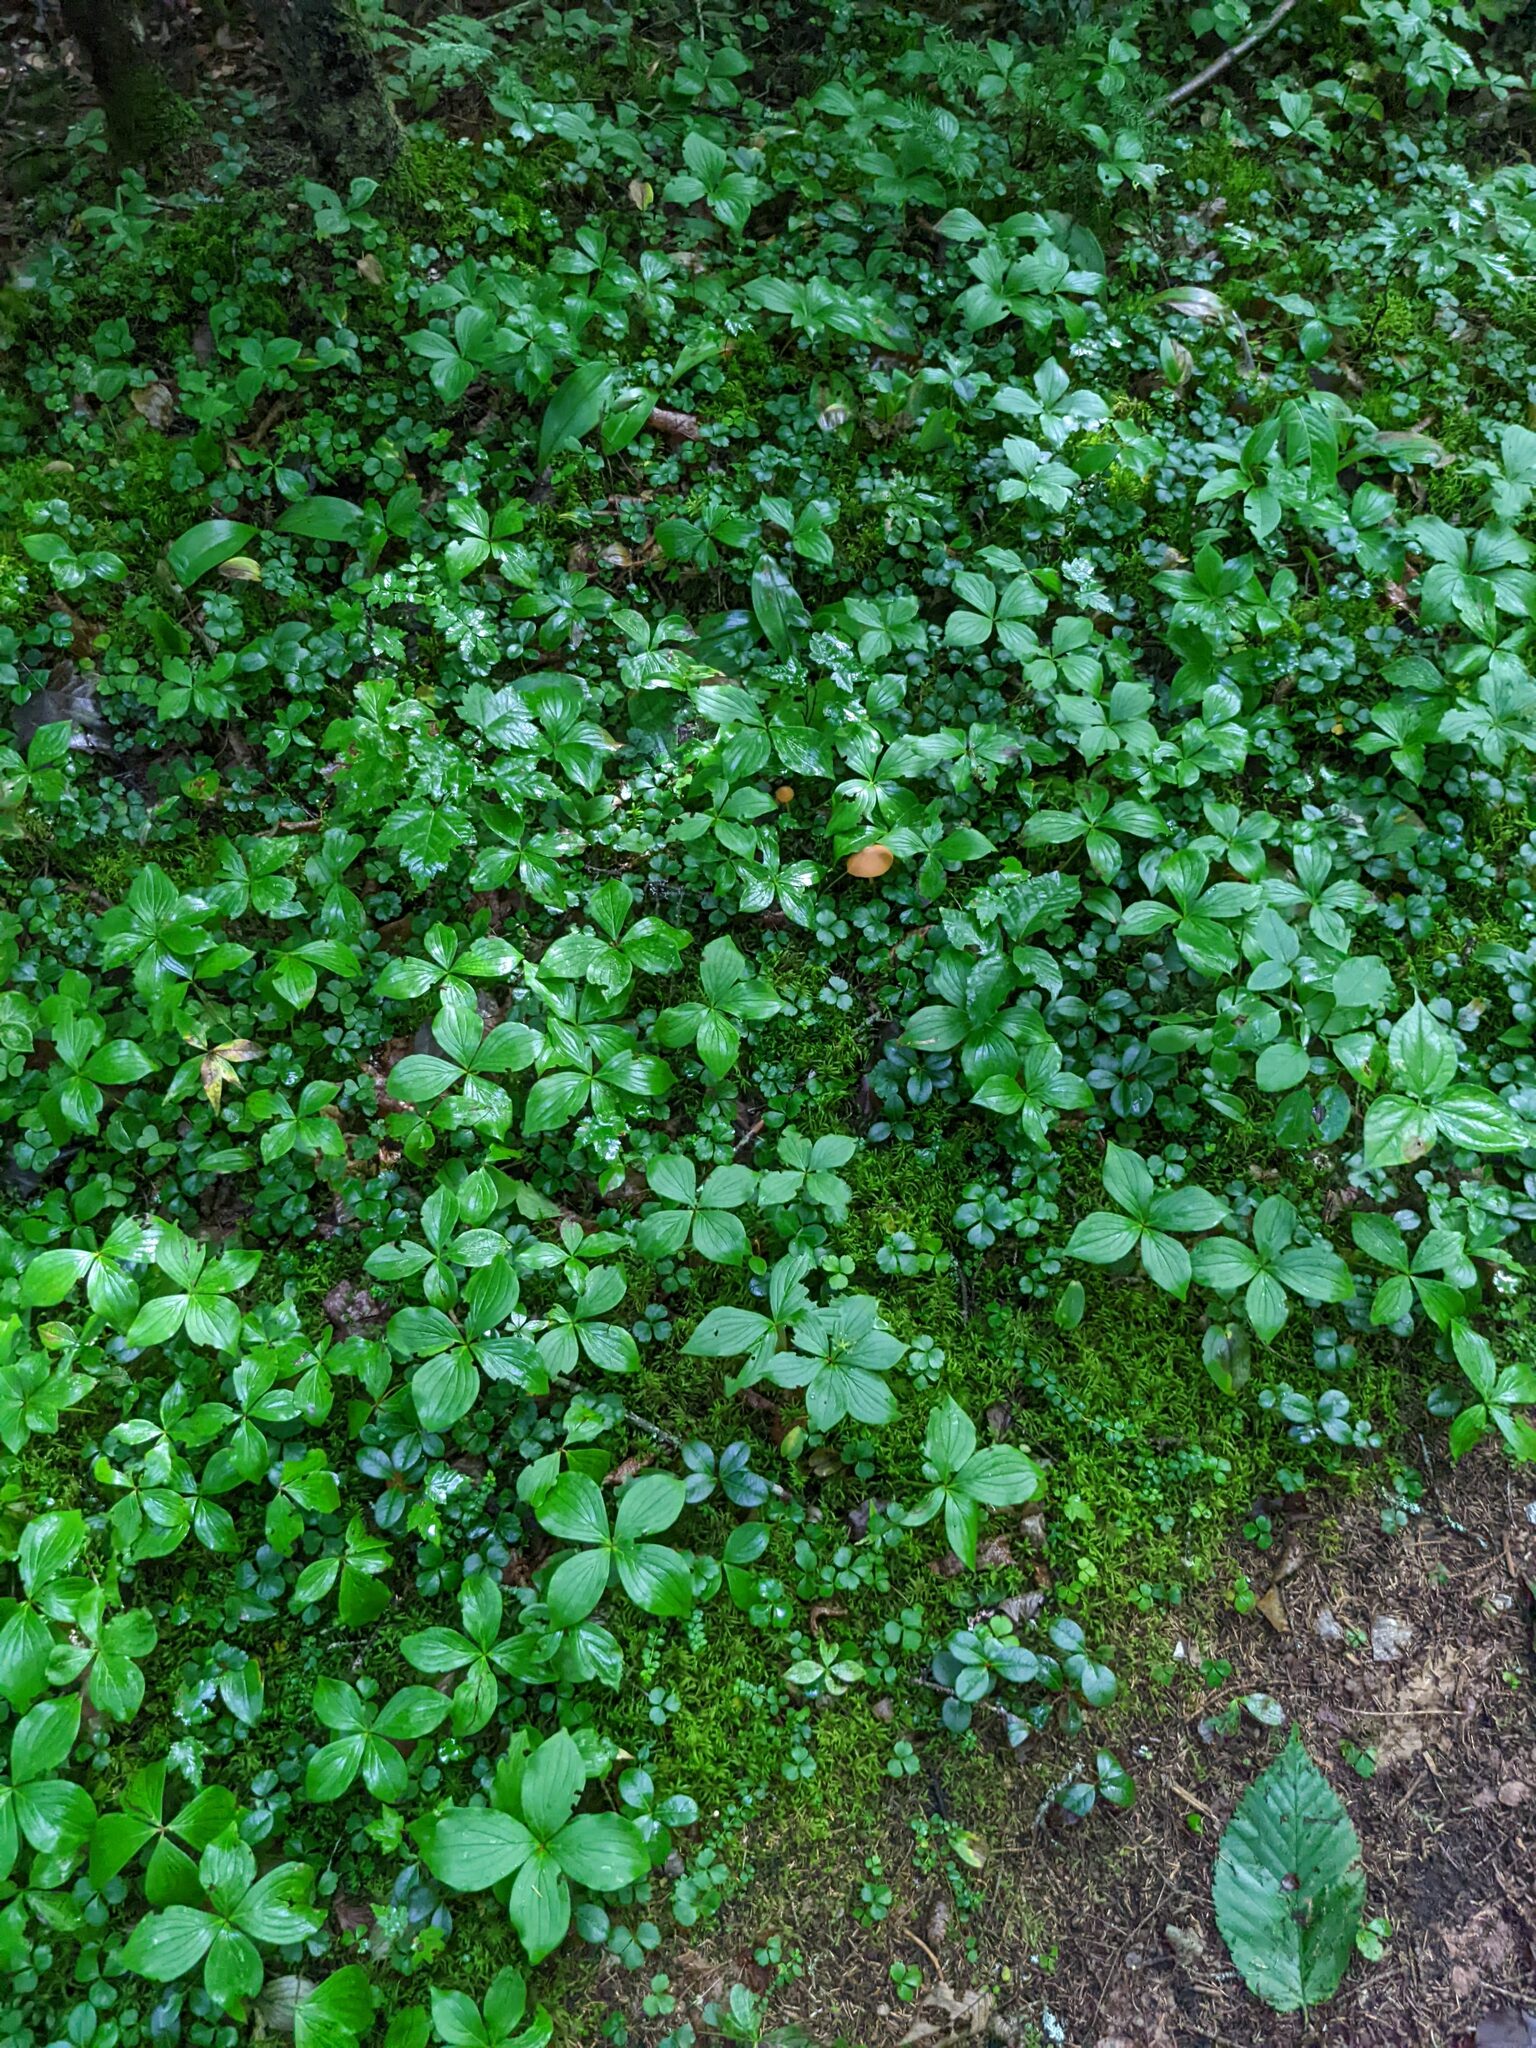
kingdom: Plantae
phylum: Tracheophyta
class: Magnoliopsida
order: Cornales
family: Cornaceae
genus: Cornus
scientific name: Cornus canadensis
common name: Creeping dogwood
